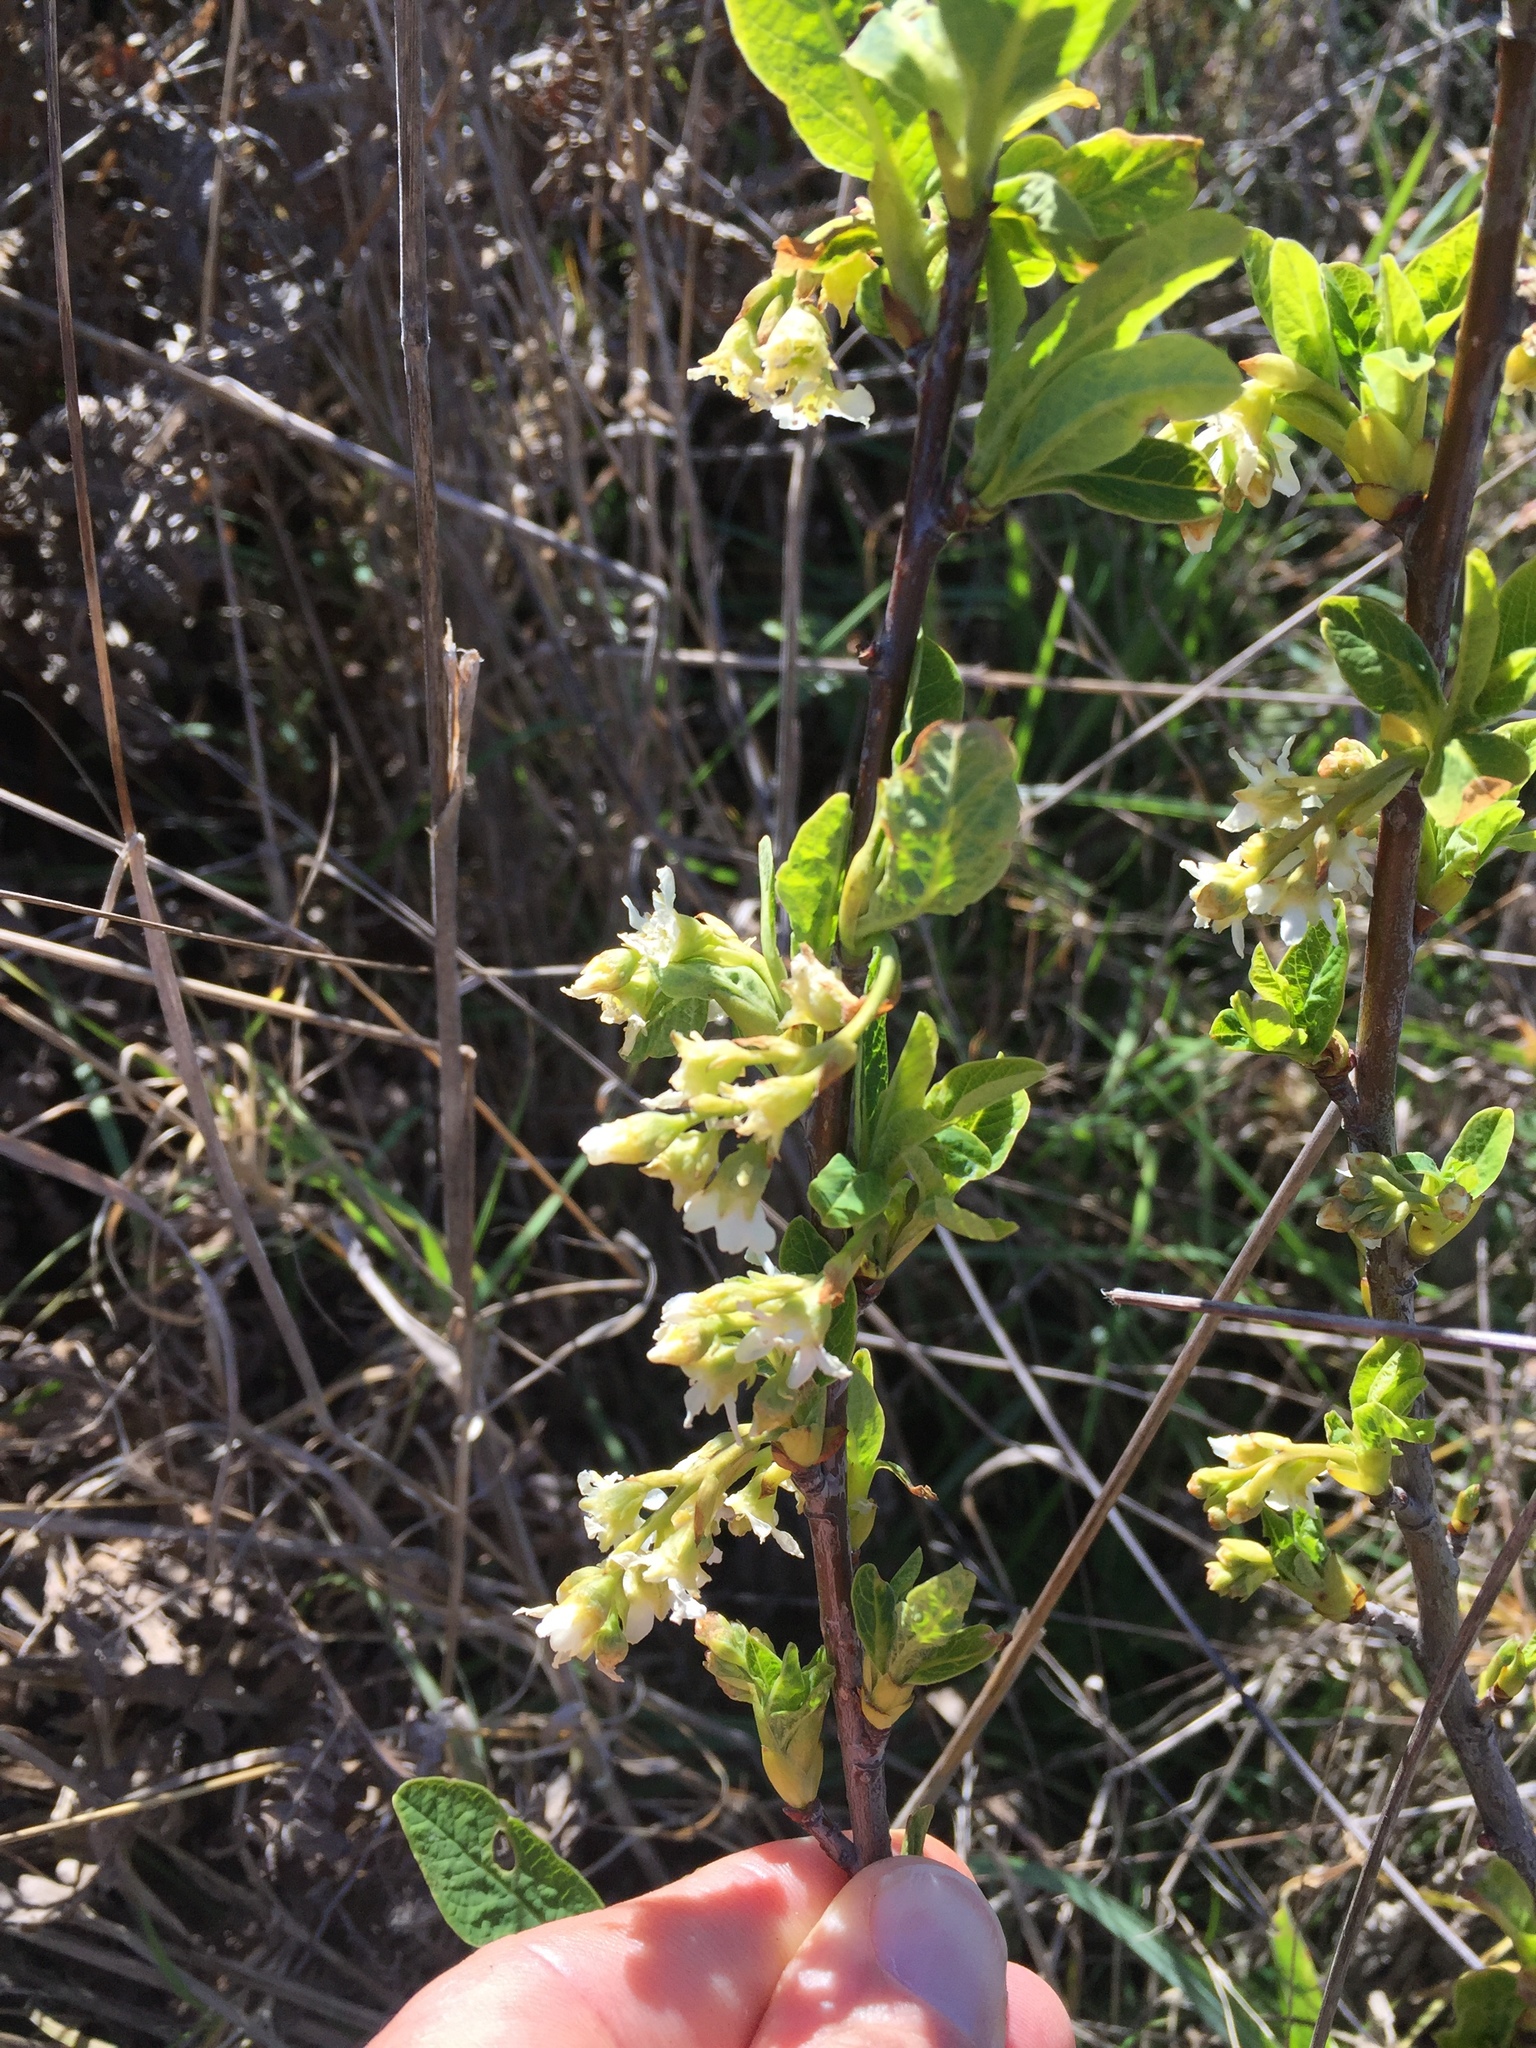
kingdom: Plantae
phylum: Tracheophyta
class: Magnoliopsida
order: Rosales
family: Rosaceae
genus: Oemleria
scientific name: Oemleria cerasiformis
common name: Osoberry
